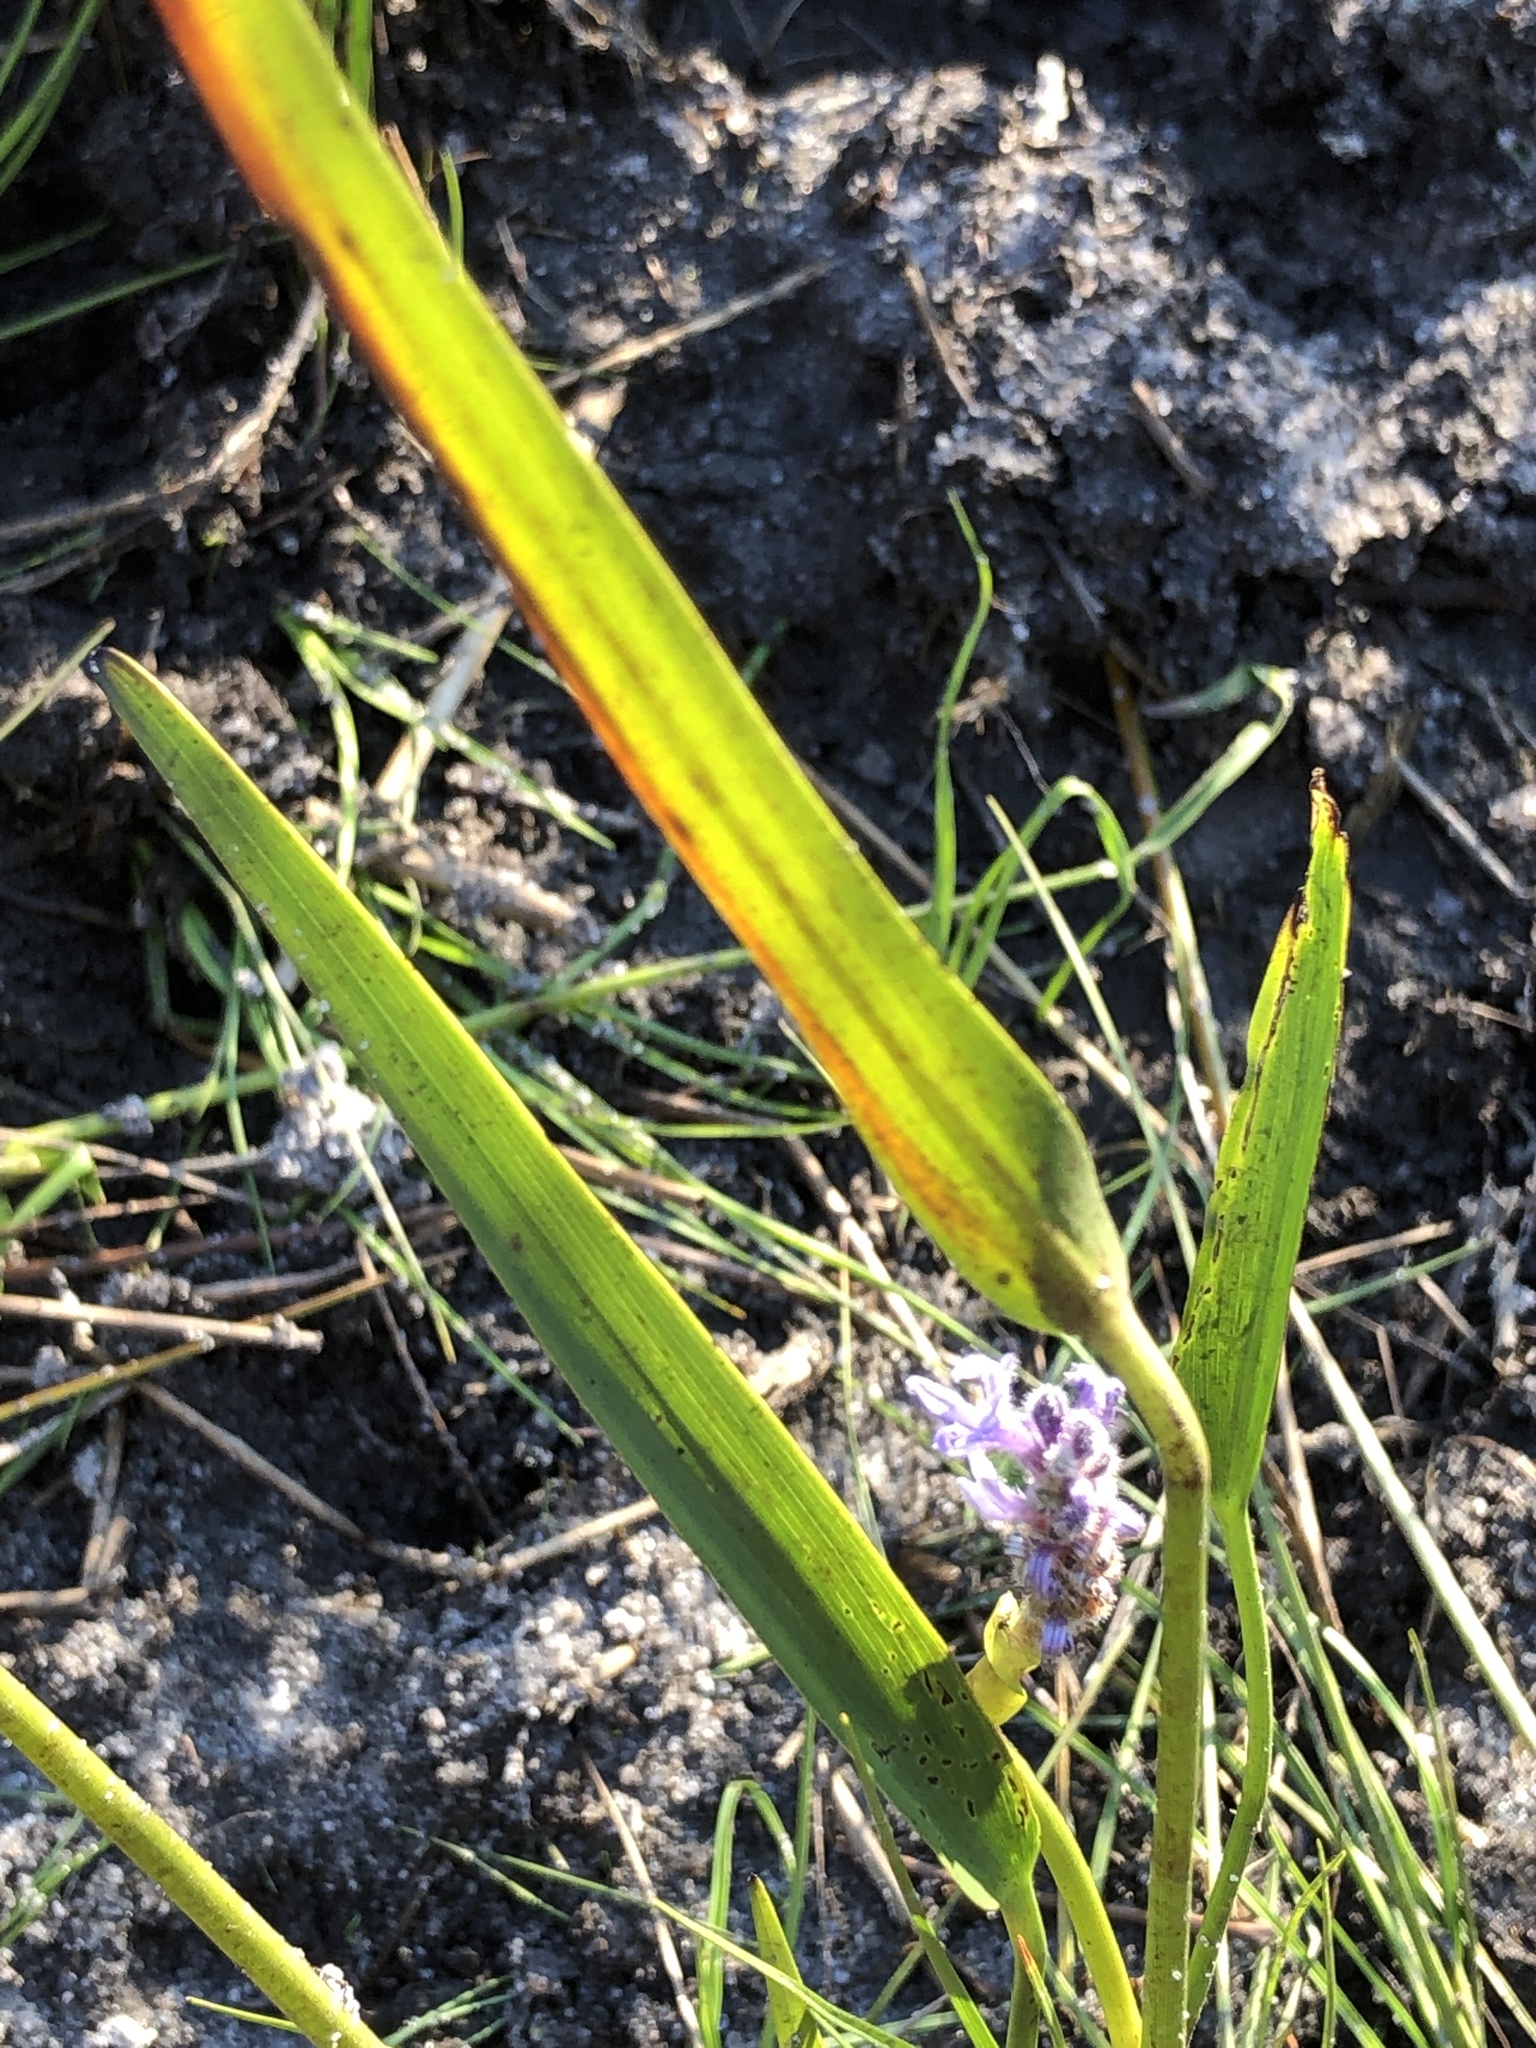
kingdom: Plantae
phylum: Tracheophyta
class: Liliopsida
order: Commelinales
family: Pontederiaceae
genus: Pontederia
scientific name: Pontederia cordata
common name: Pickerelweed
